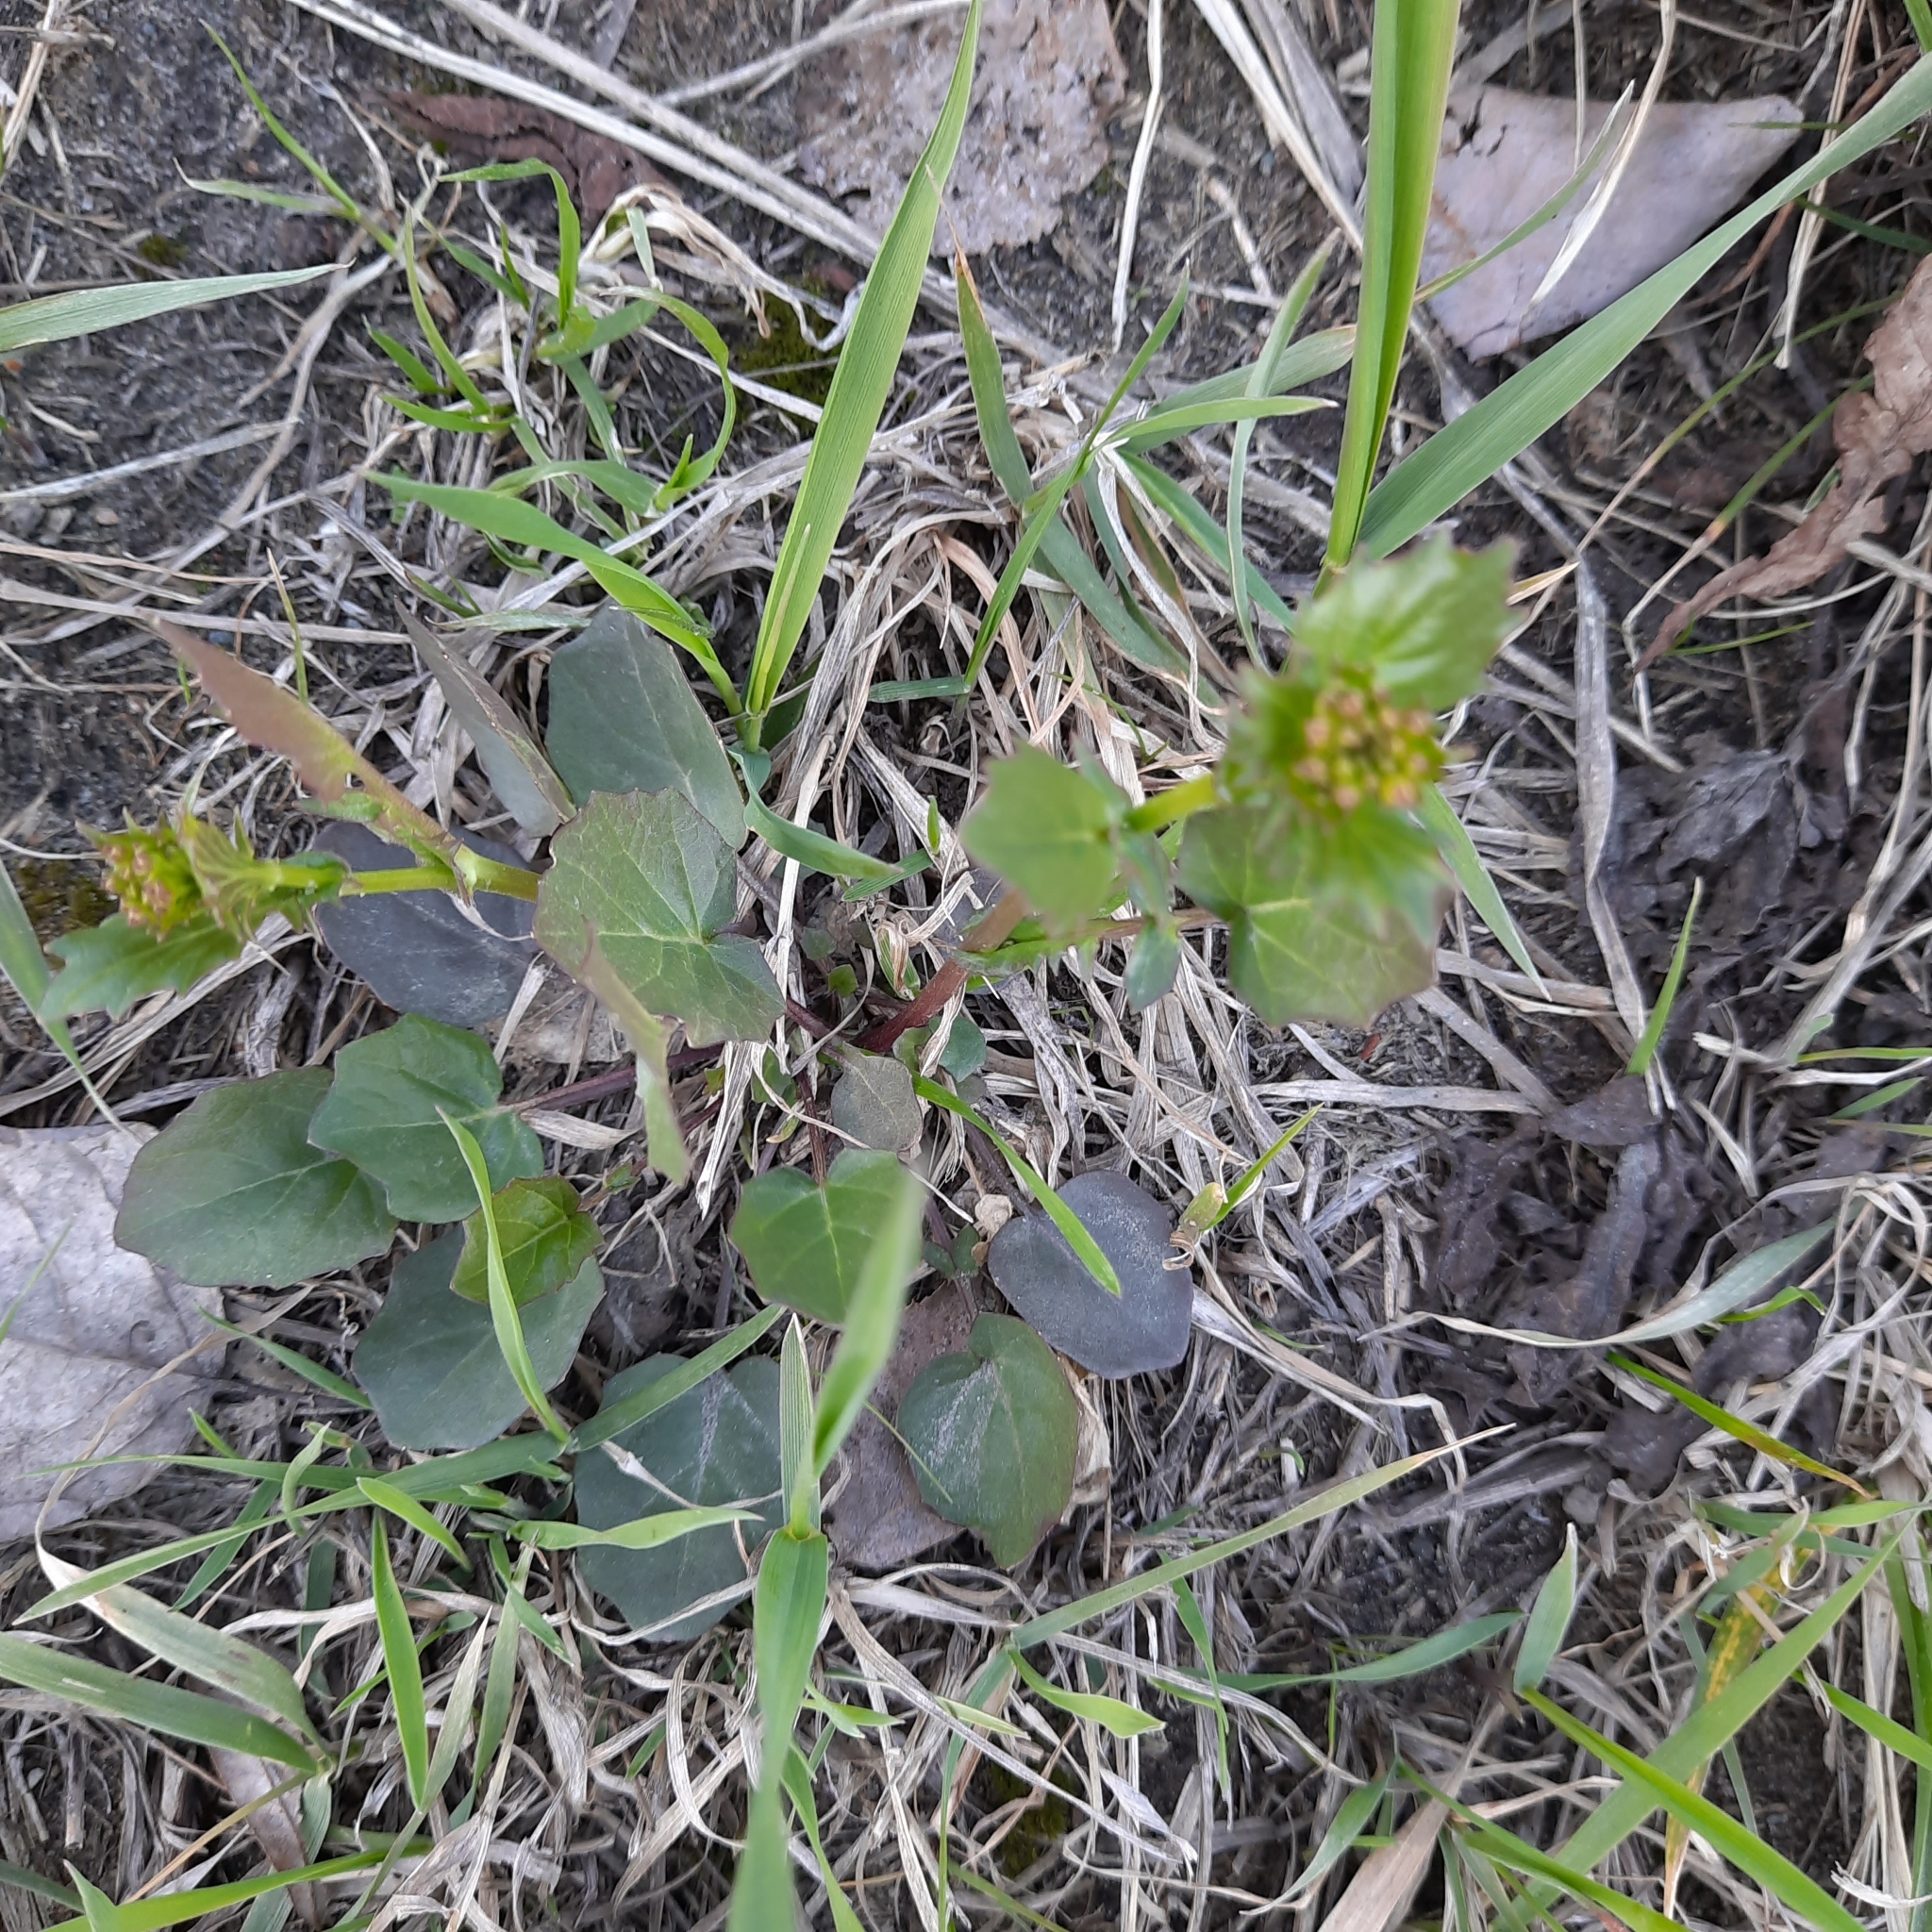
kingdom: Plantae
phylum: Tracheophyta
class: Magnoliopsida
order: Brassicales
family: Brassicaceae
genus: Barbarea
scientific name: Barbarea vulgaris
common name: Cressy-greens
